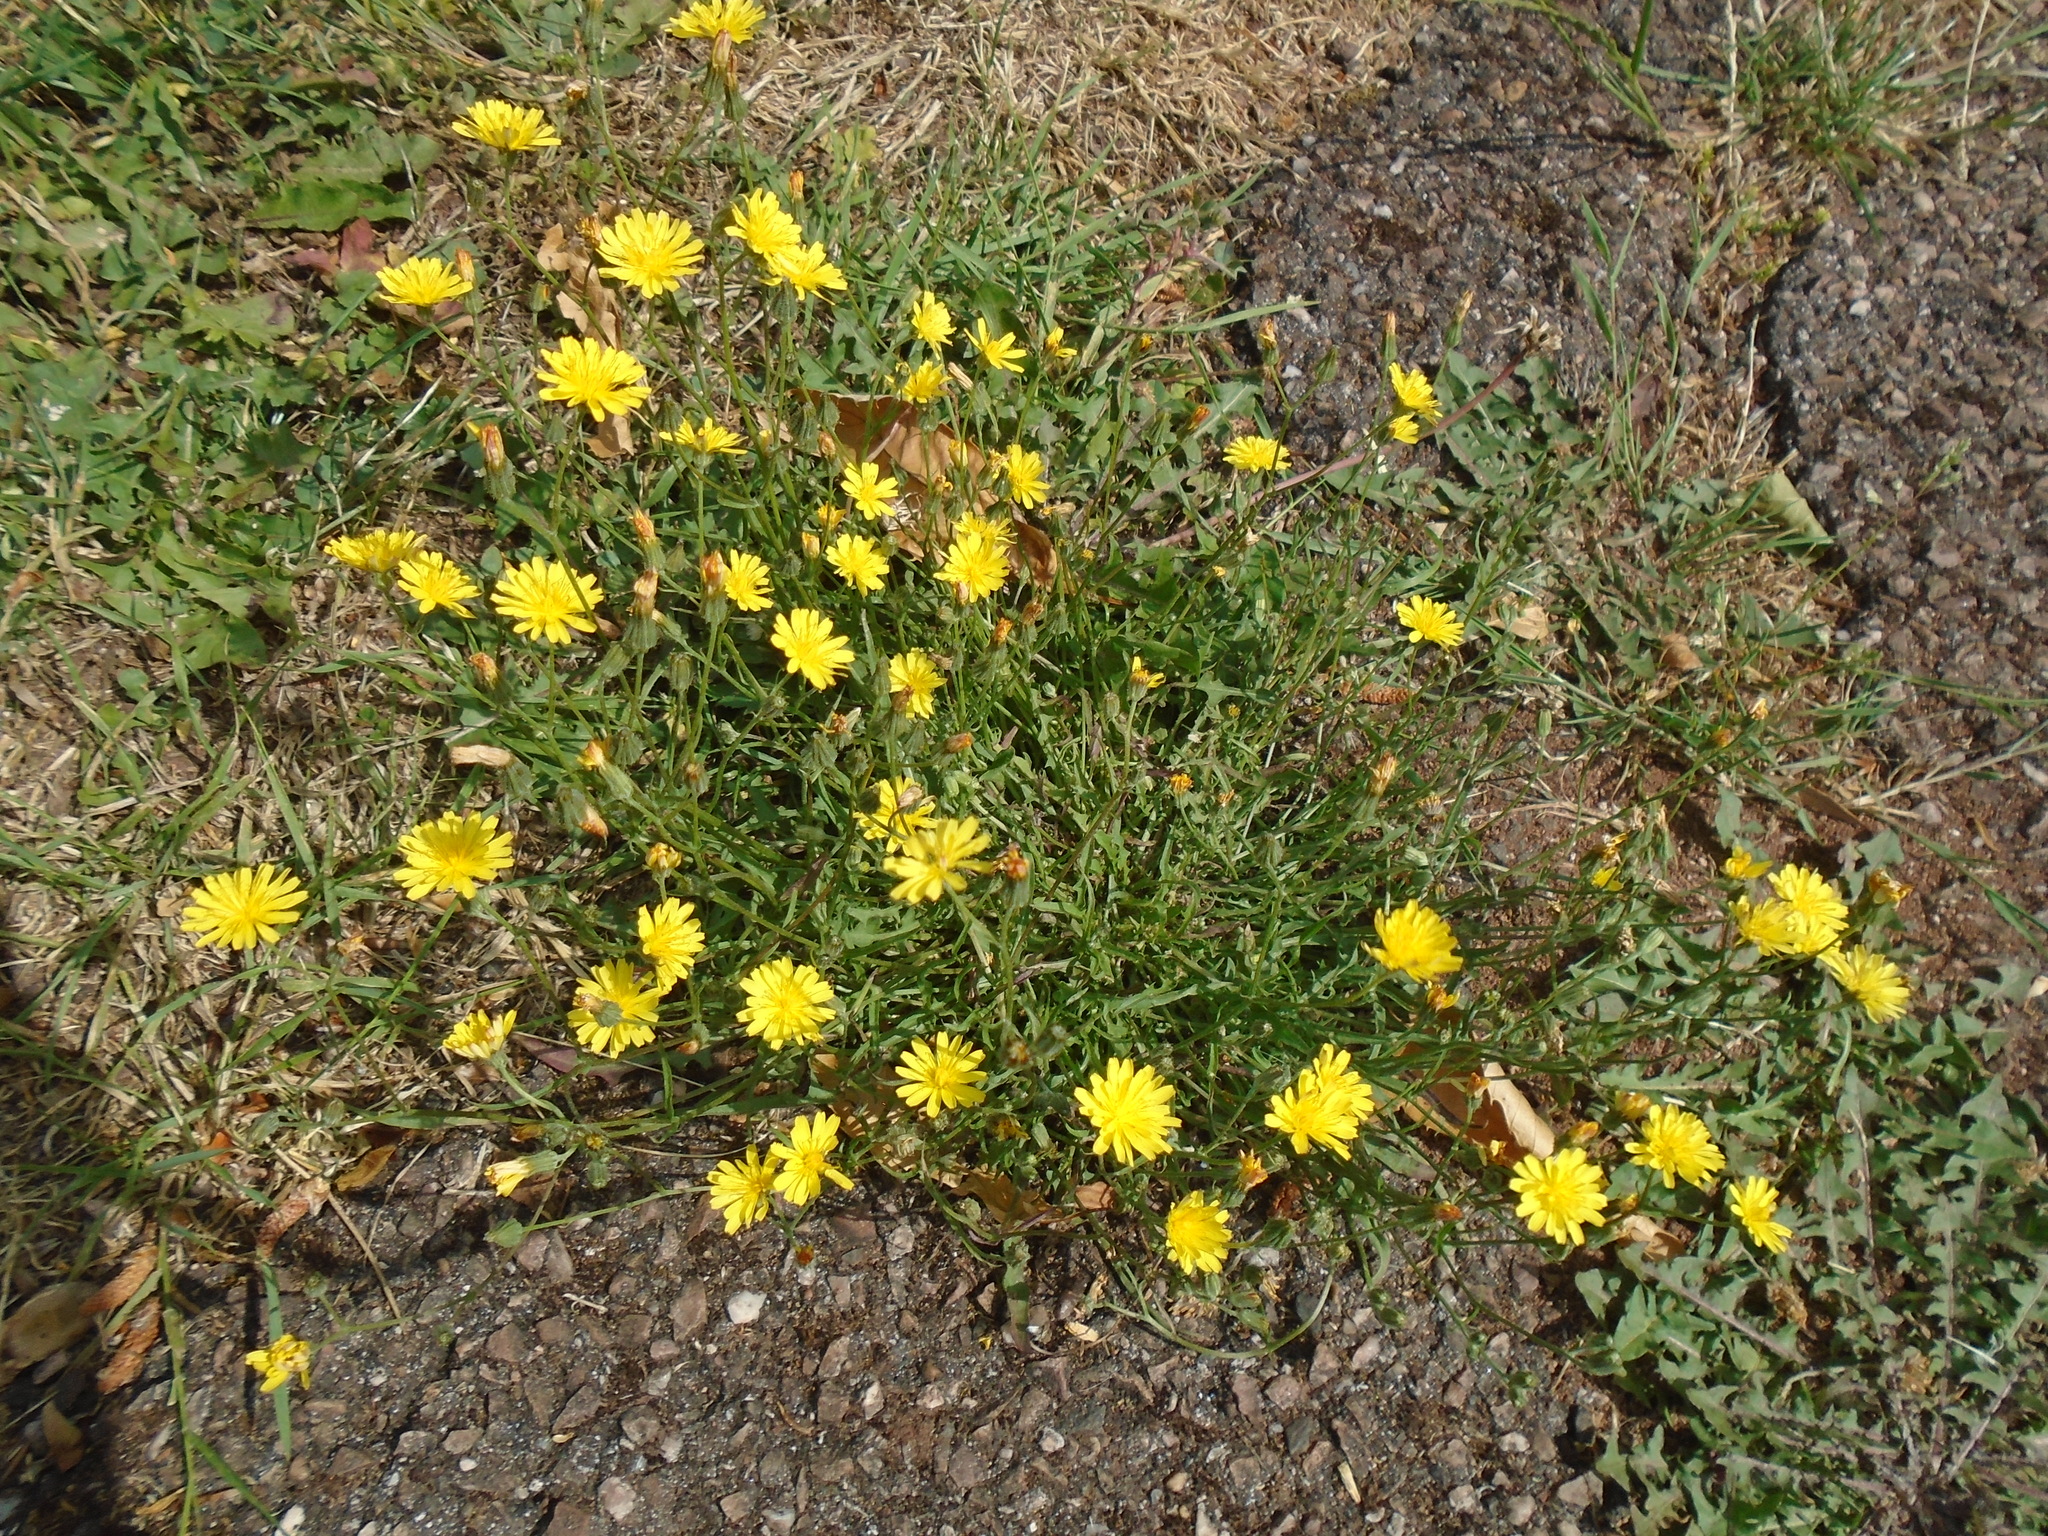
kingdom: Plantae
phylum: Tracheophyta
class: Magnoliopsida
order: Asterales
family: Asteraceae
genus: Crepis
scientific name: Crepis capillaris
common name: Smooth hawksbeard
